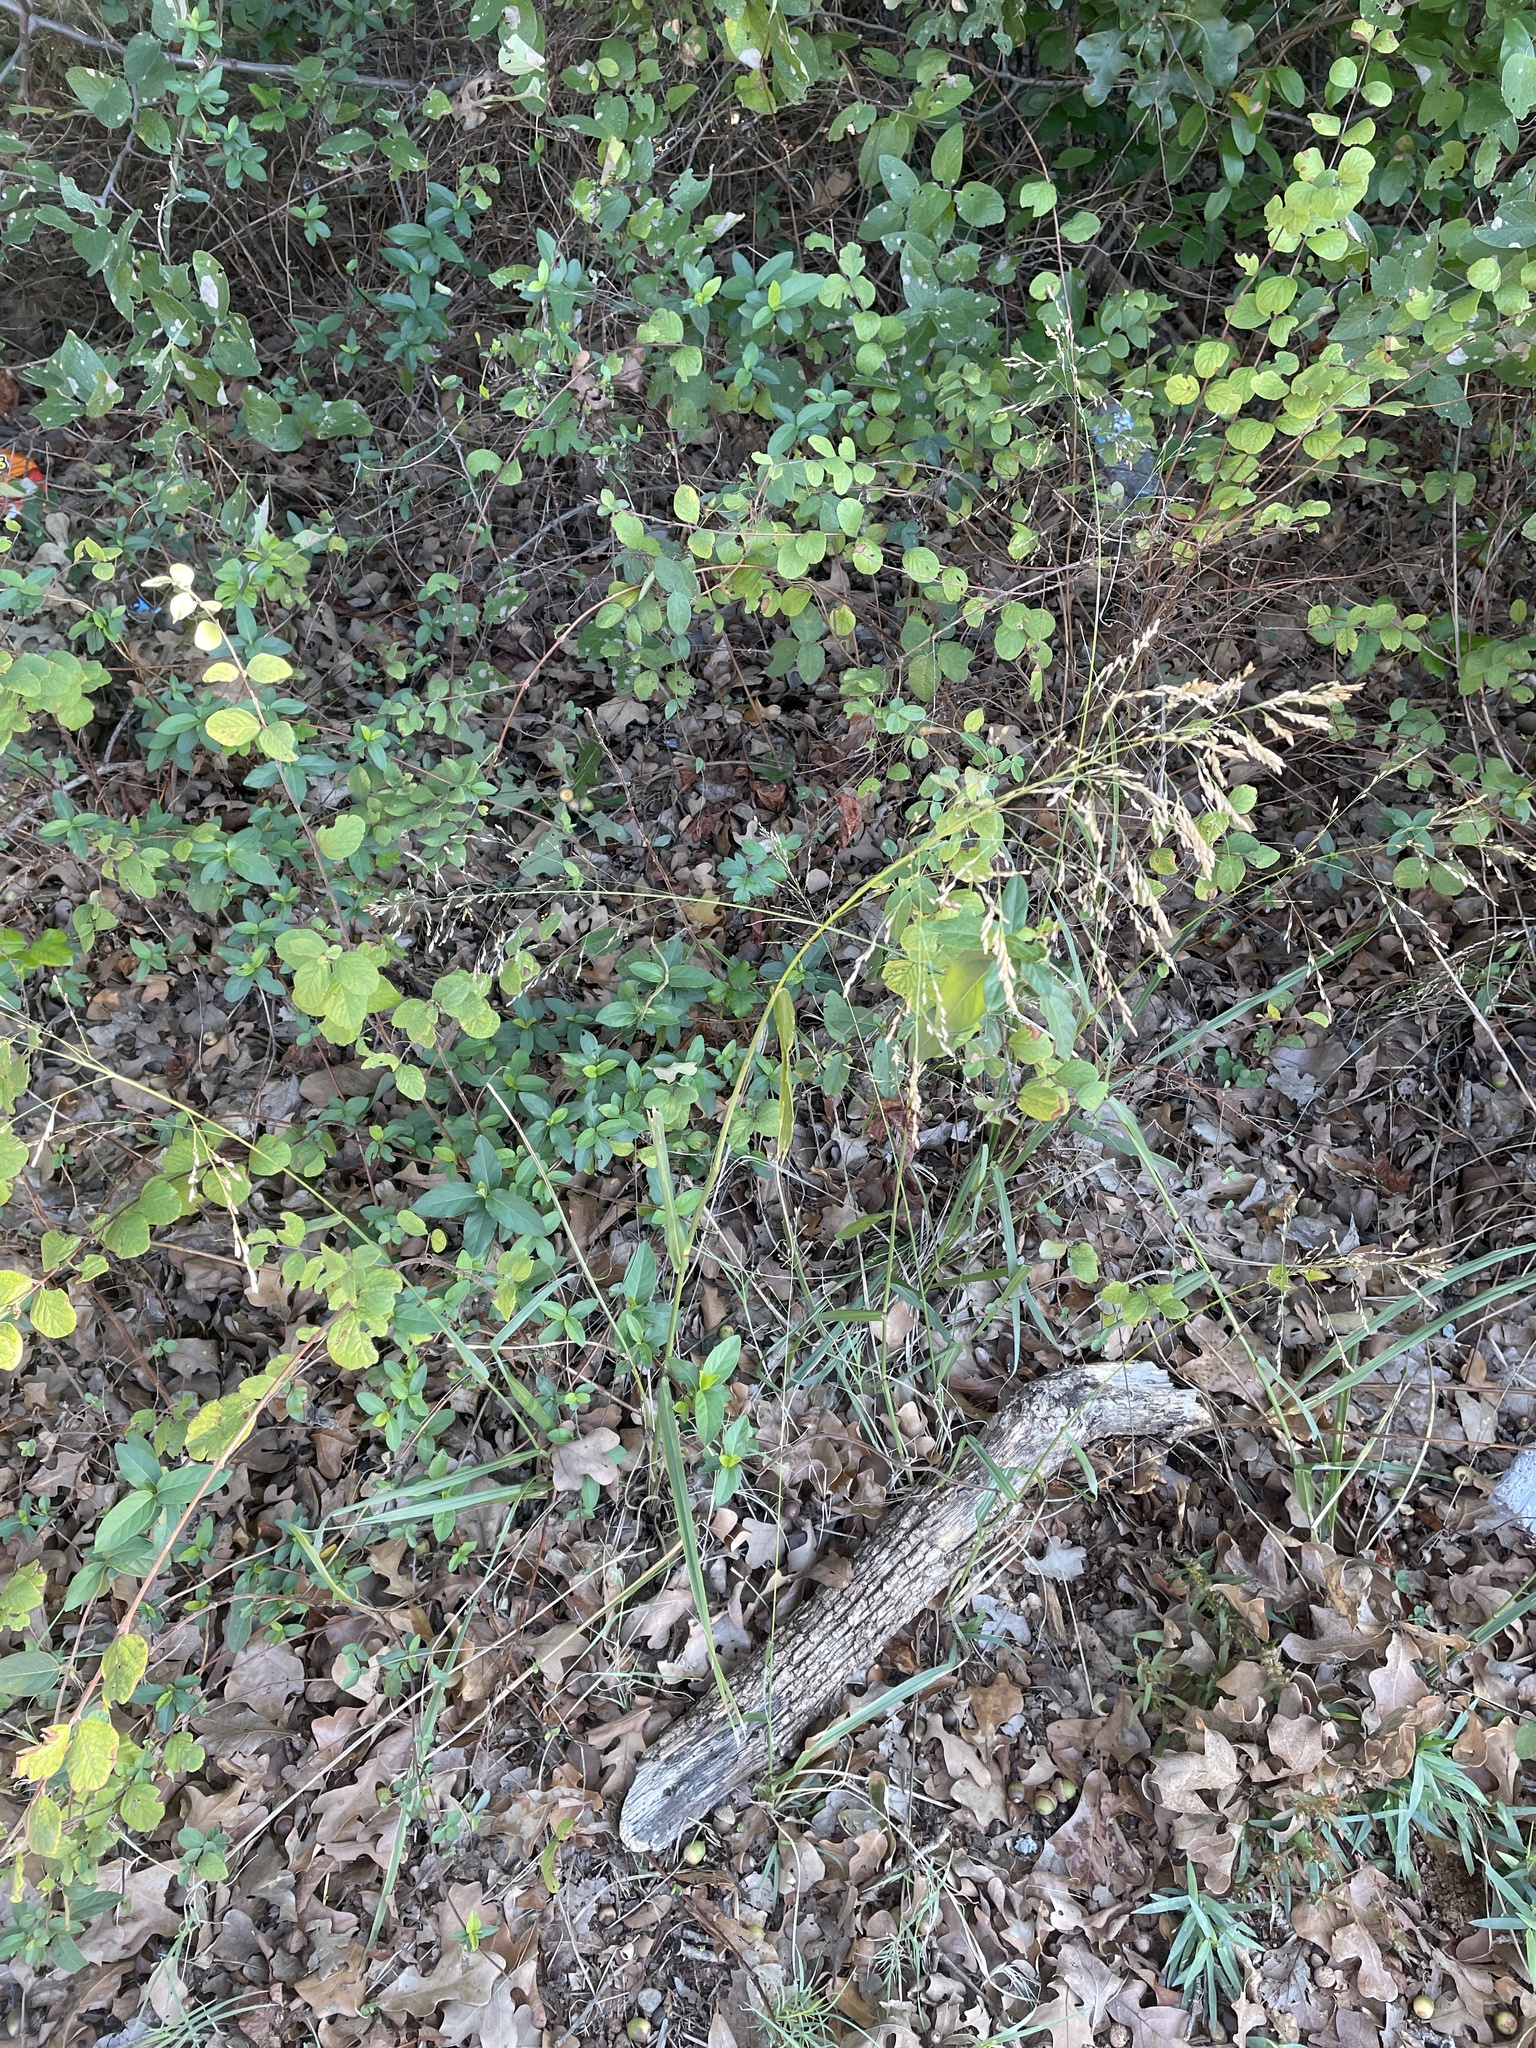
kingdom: Plantae
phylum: Tracheophyta
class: Liliopsida
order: Poales
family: Poaceae
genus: Tridens
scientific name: Tridens flavus
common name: Purpletop
